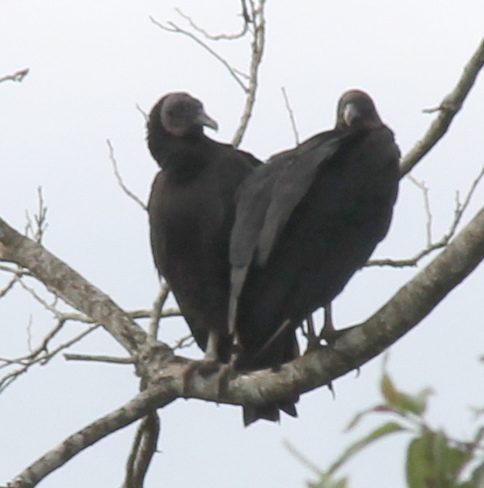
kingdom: Animalia
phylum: Chordata
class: Aves
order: Accipitriformes
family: Cathartidae
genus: Coragyps
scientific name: Coragyps atratus
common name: Black vulture
